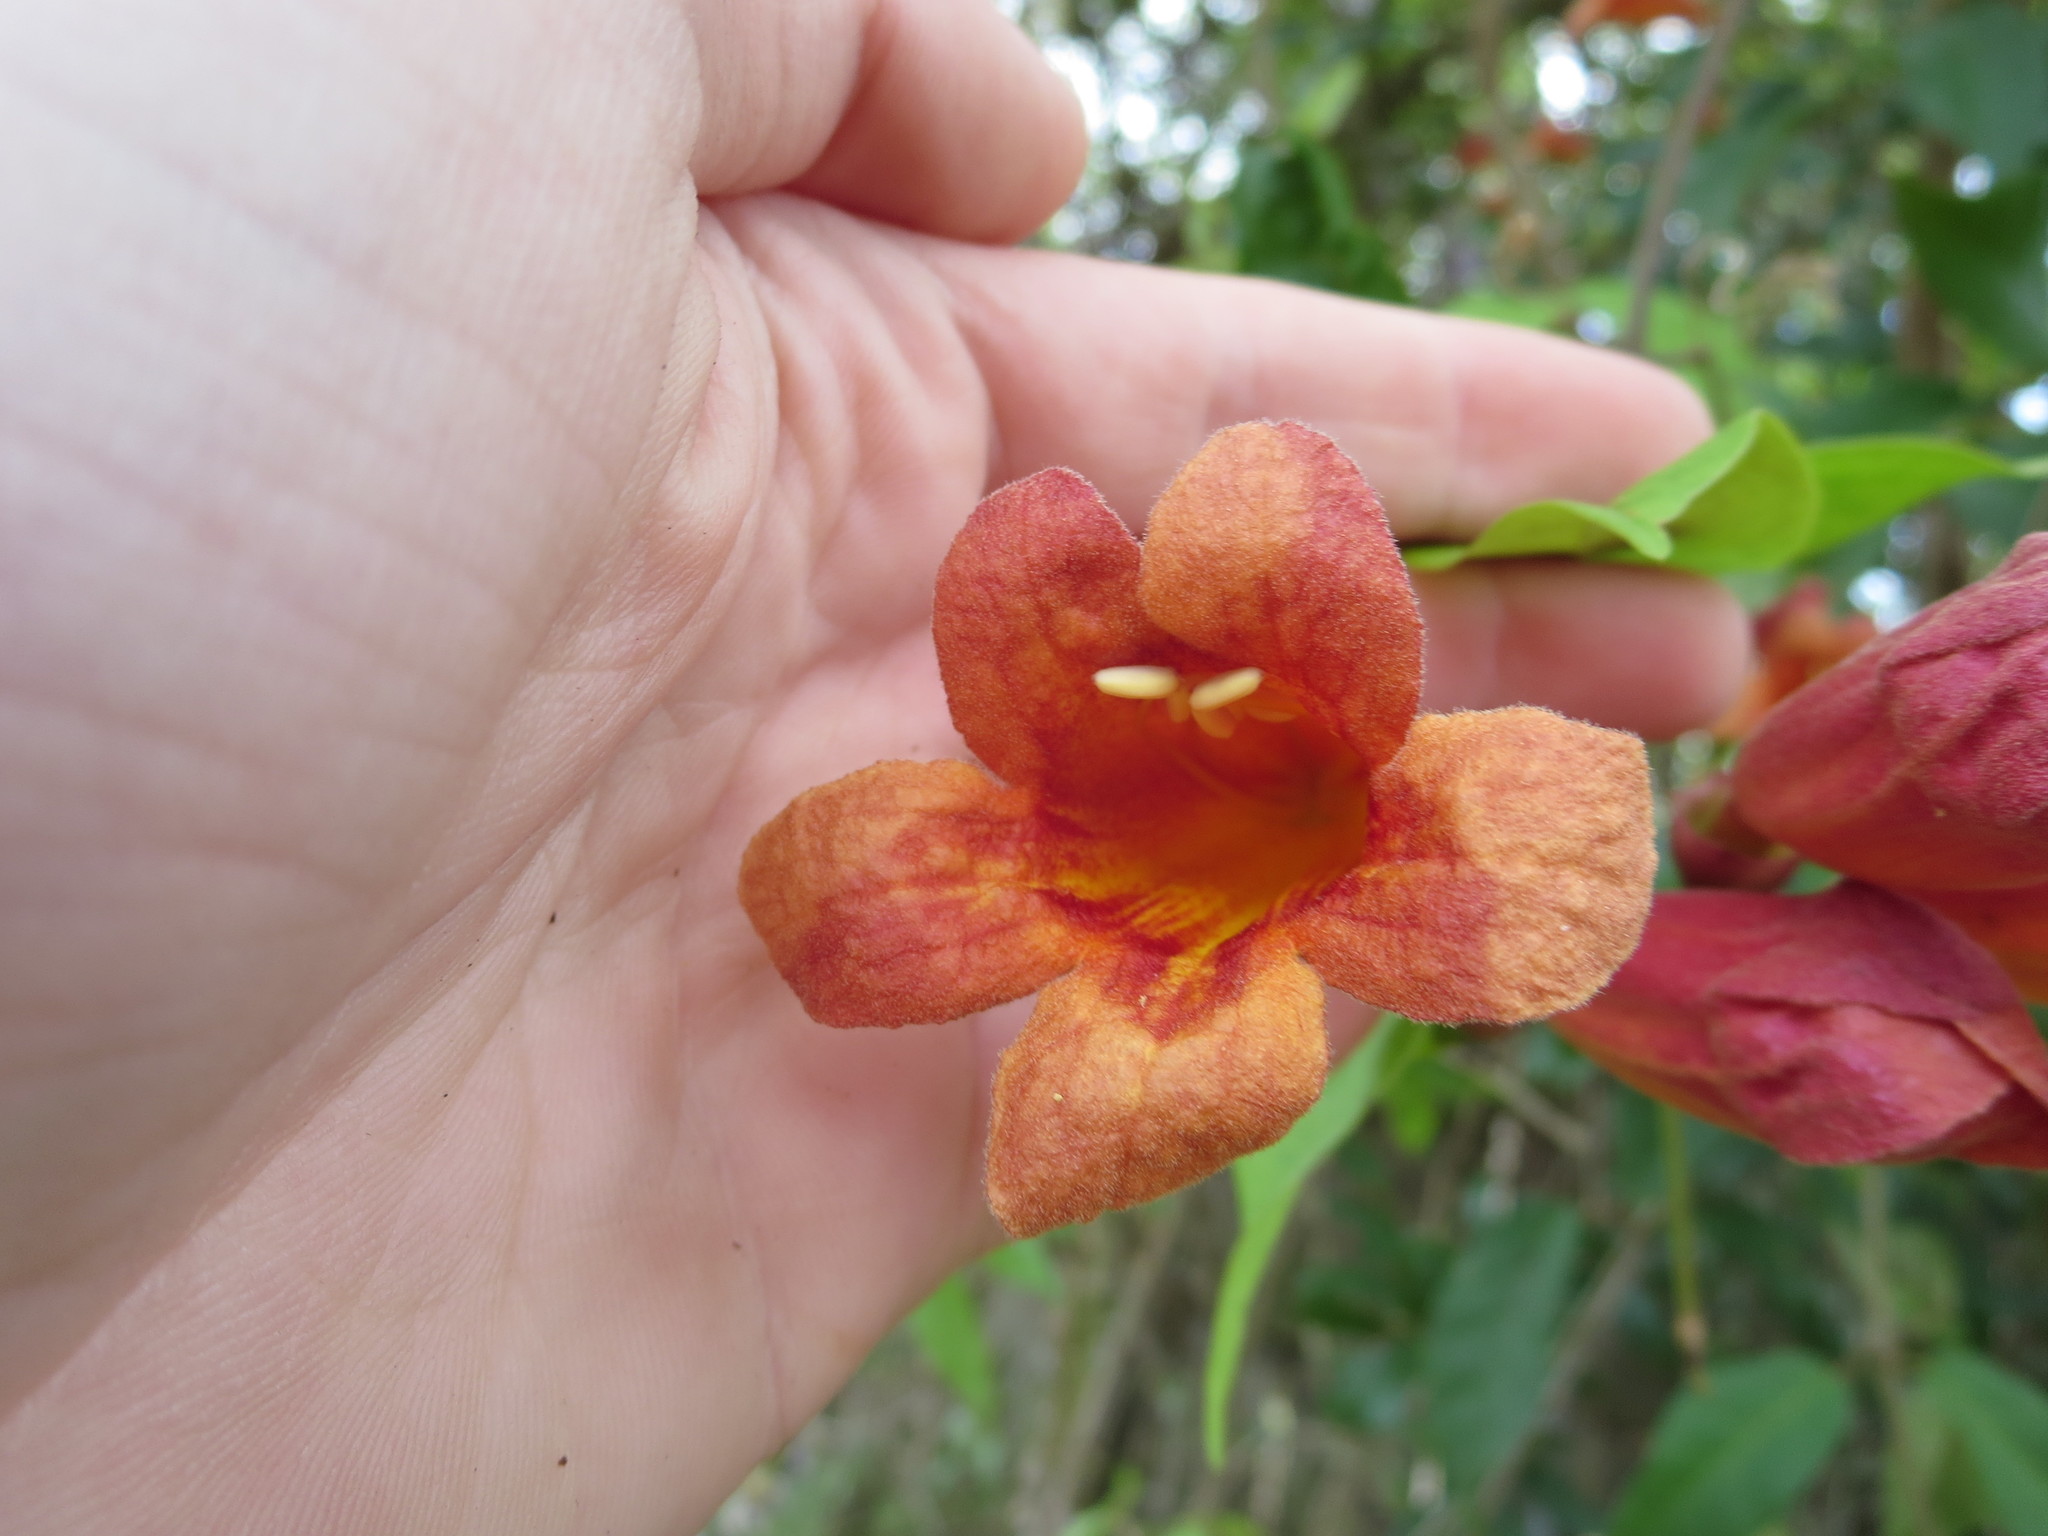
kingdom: Plantae
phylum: Tracheophyta
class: Magnoliopsida
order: Lamiales
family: Bignoniaceae
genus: Bignonia
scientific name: Bignonia capreolata
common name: Crossvine
